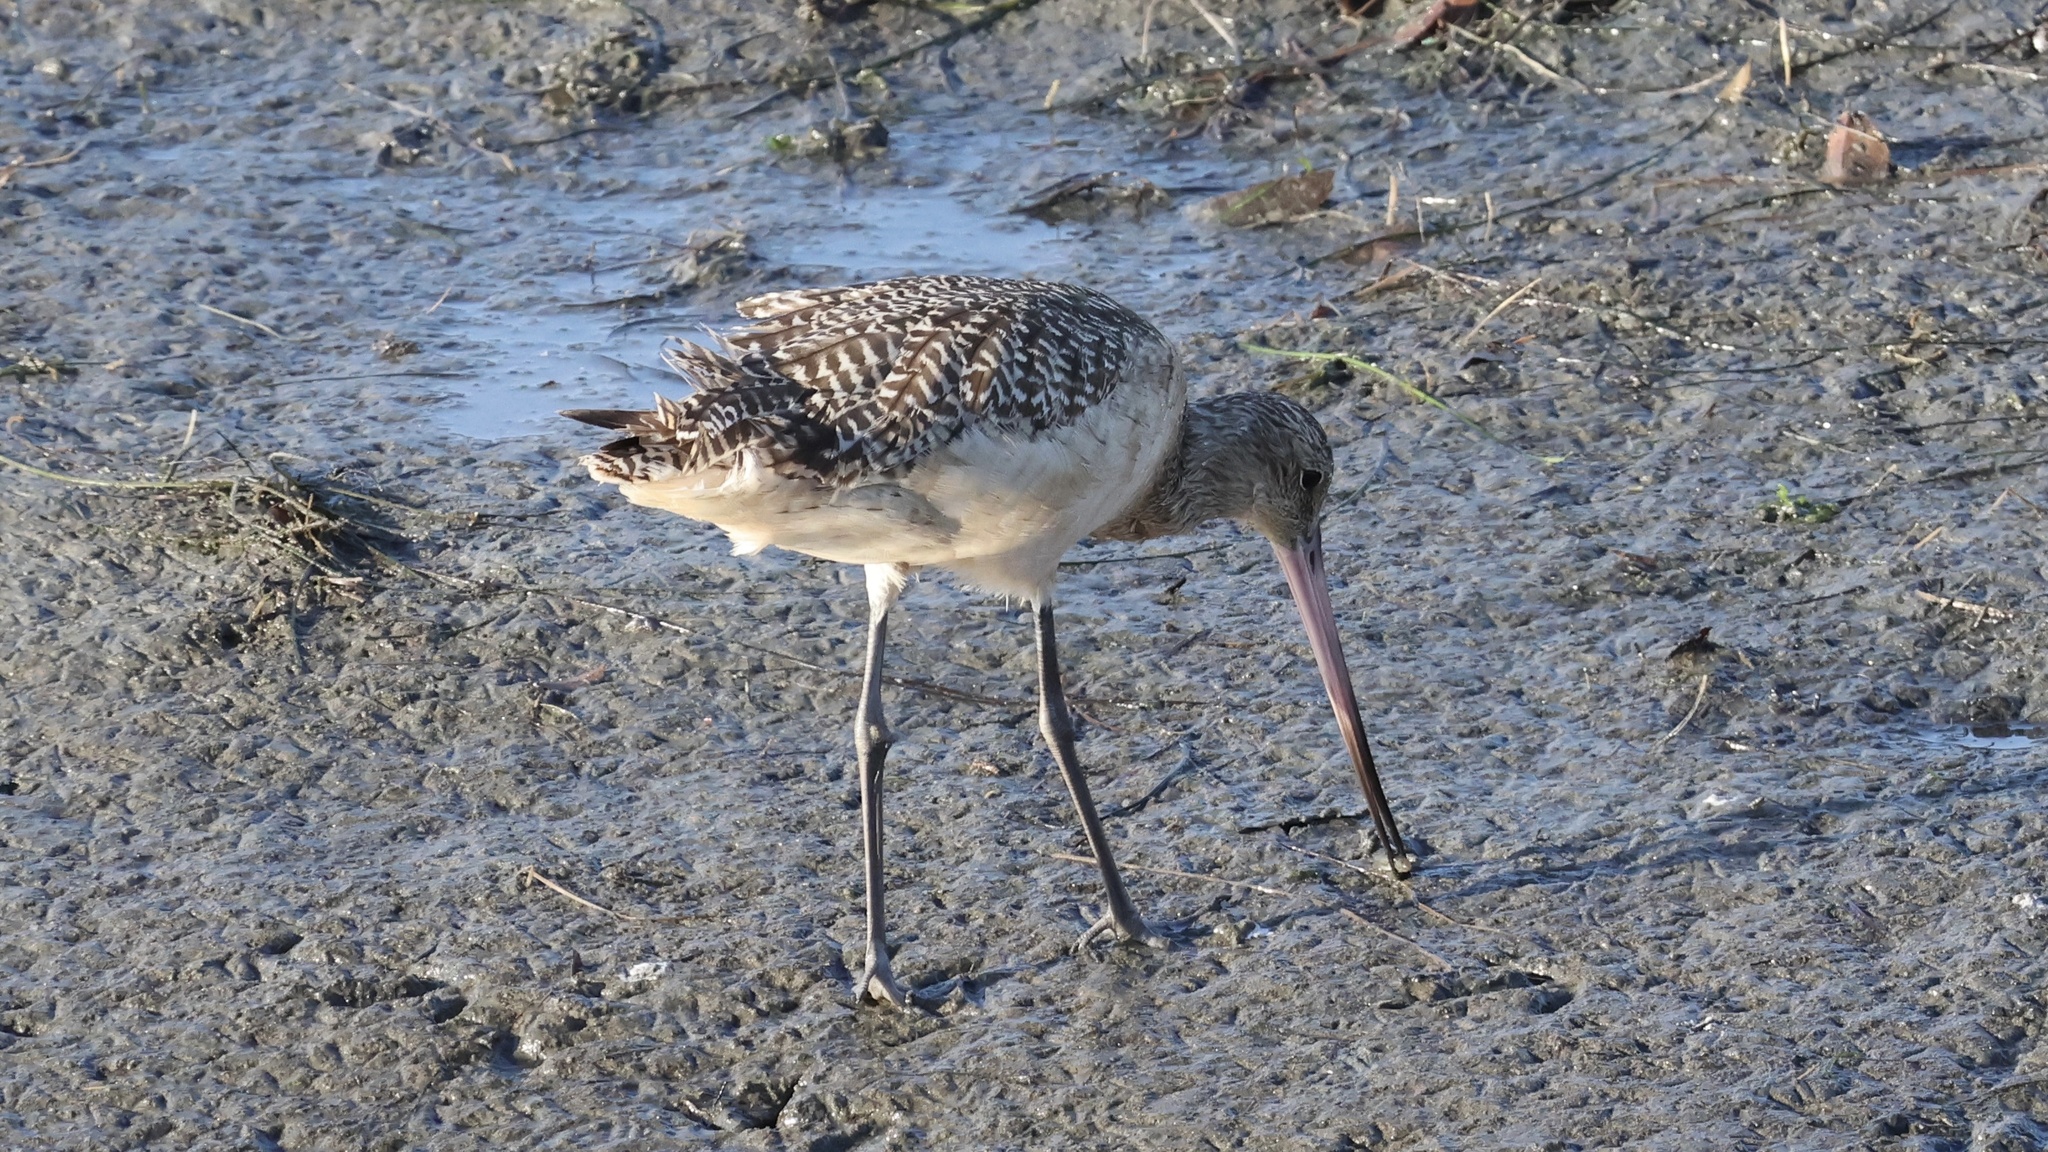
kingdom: Animalia
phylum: Chordata
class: Aves
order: Charadriiformes
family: Scolopacidae
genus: Limosa
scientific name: Limosa fedoa
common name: Marbled godwit
